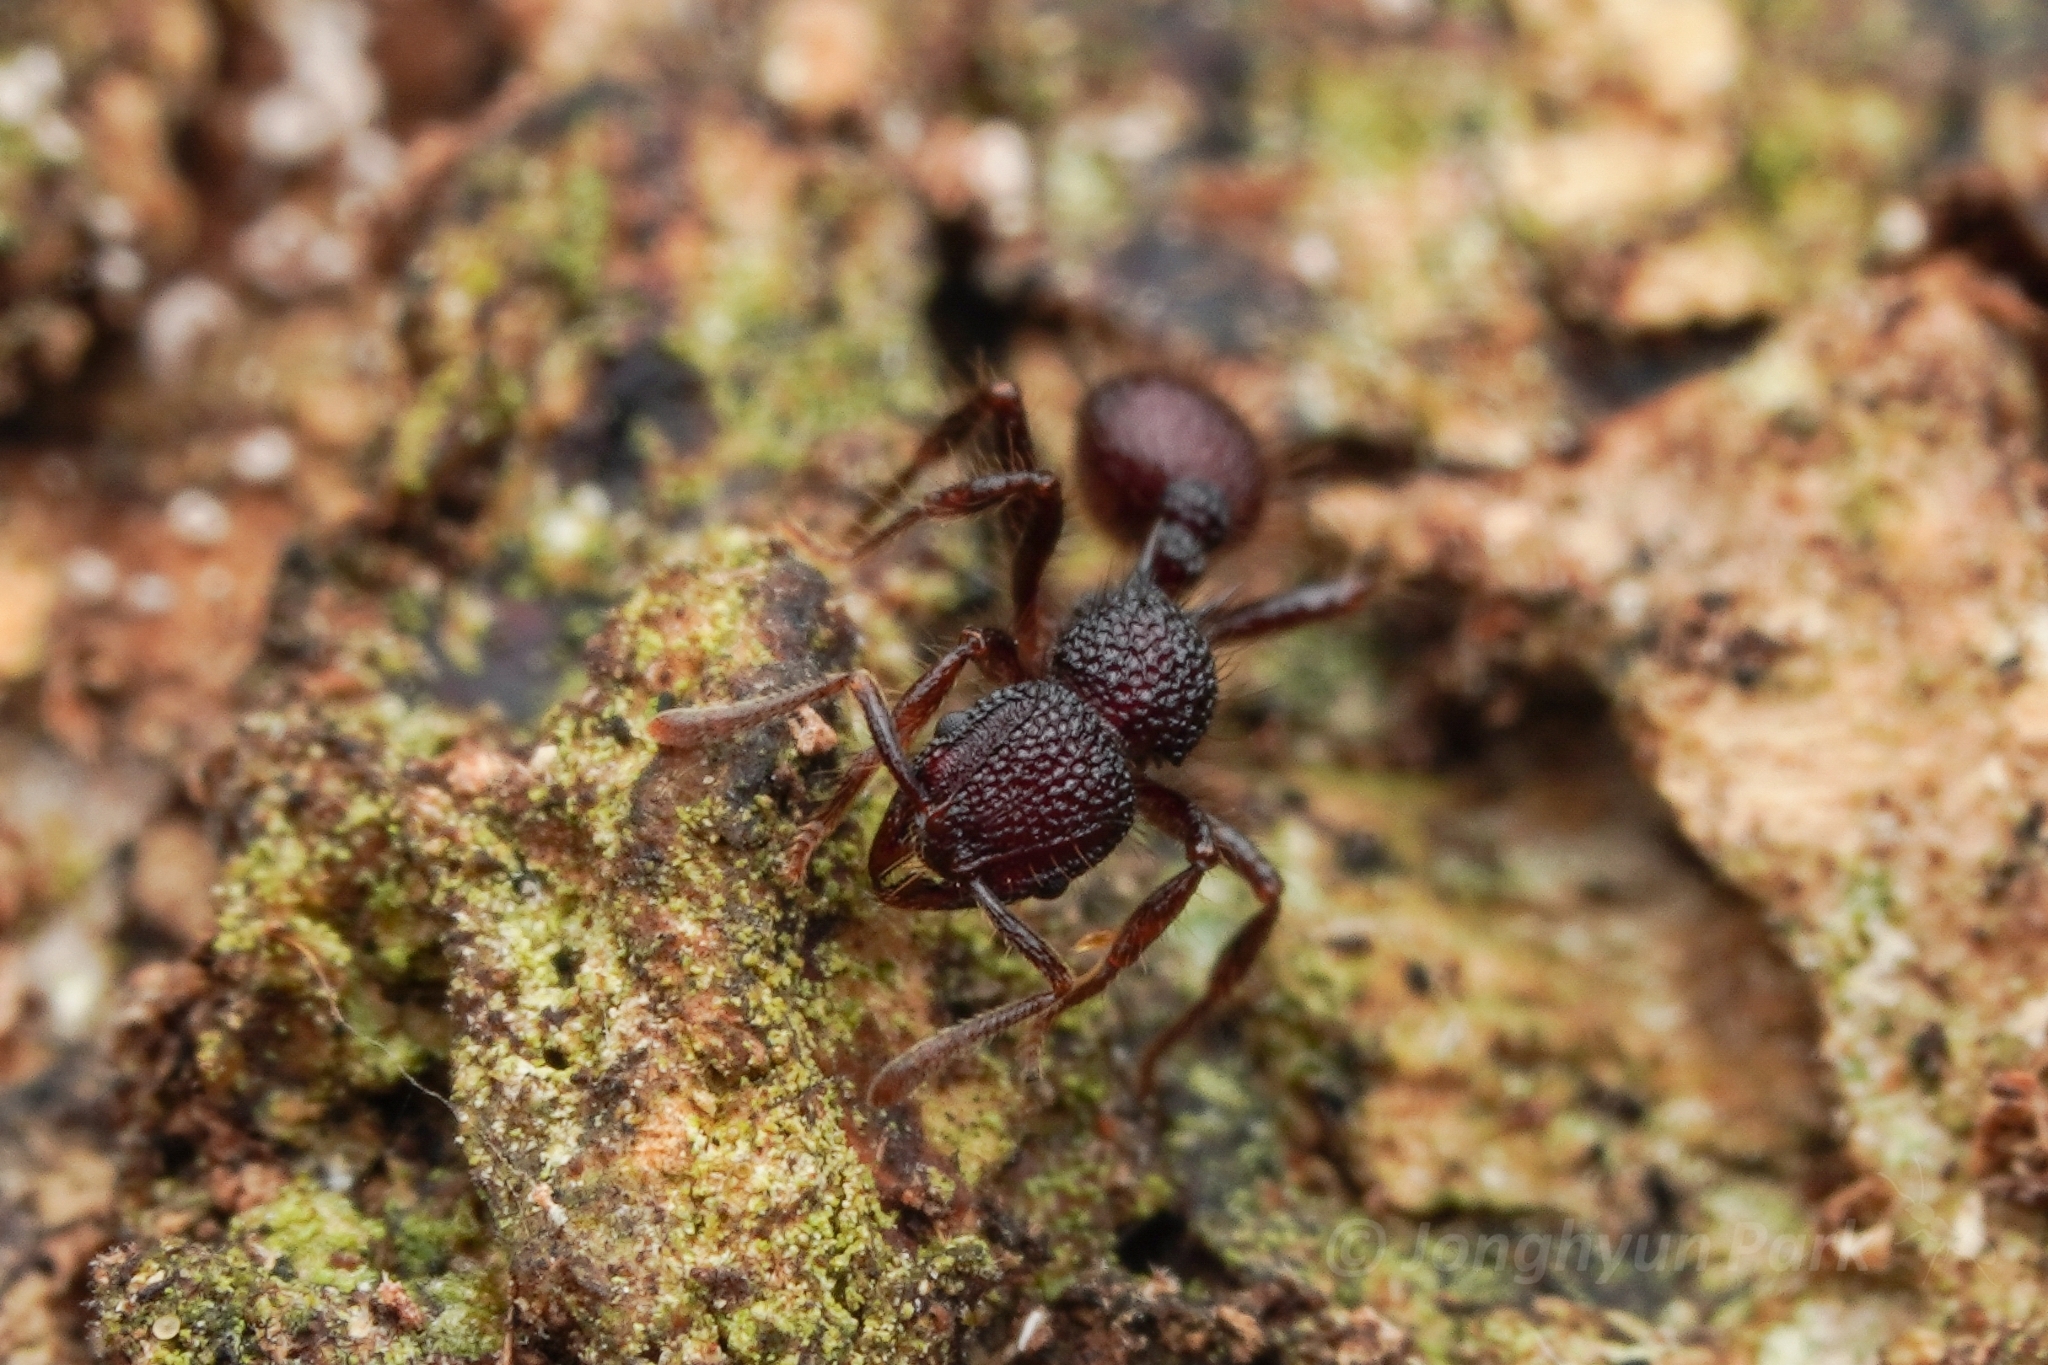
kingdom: Animalia
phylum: Arthropoda
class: Insecta
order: Hymenoptera
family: Formicidae
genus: Lordomyrma
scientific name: Lordomyrma reticulata
